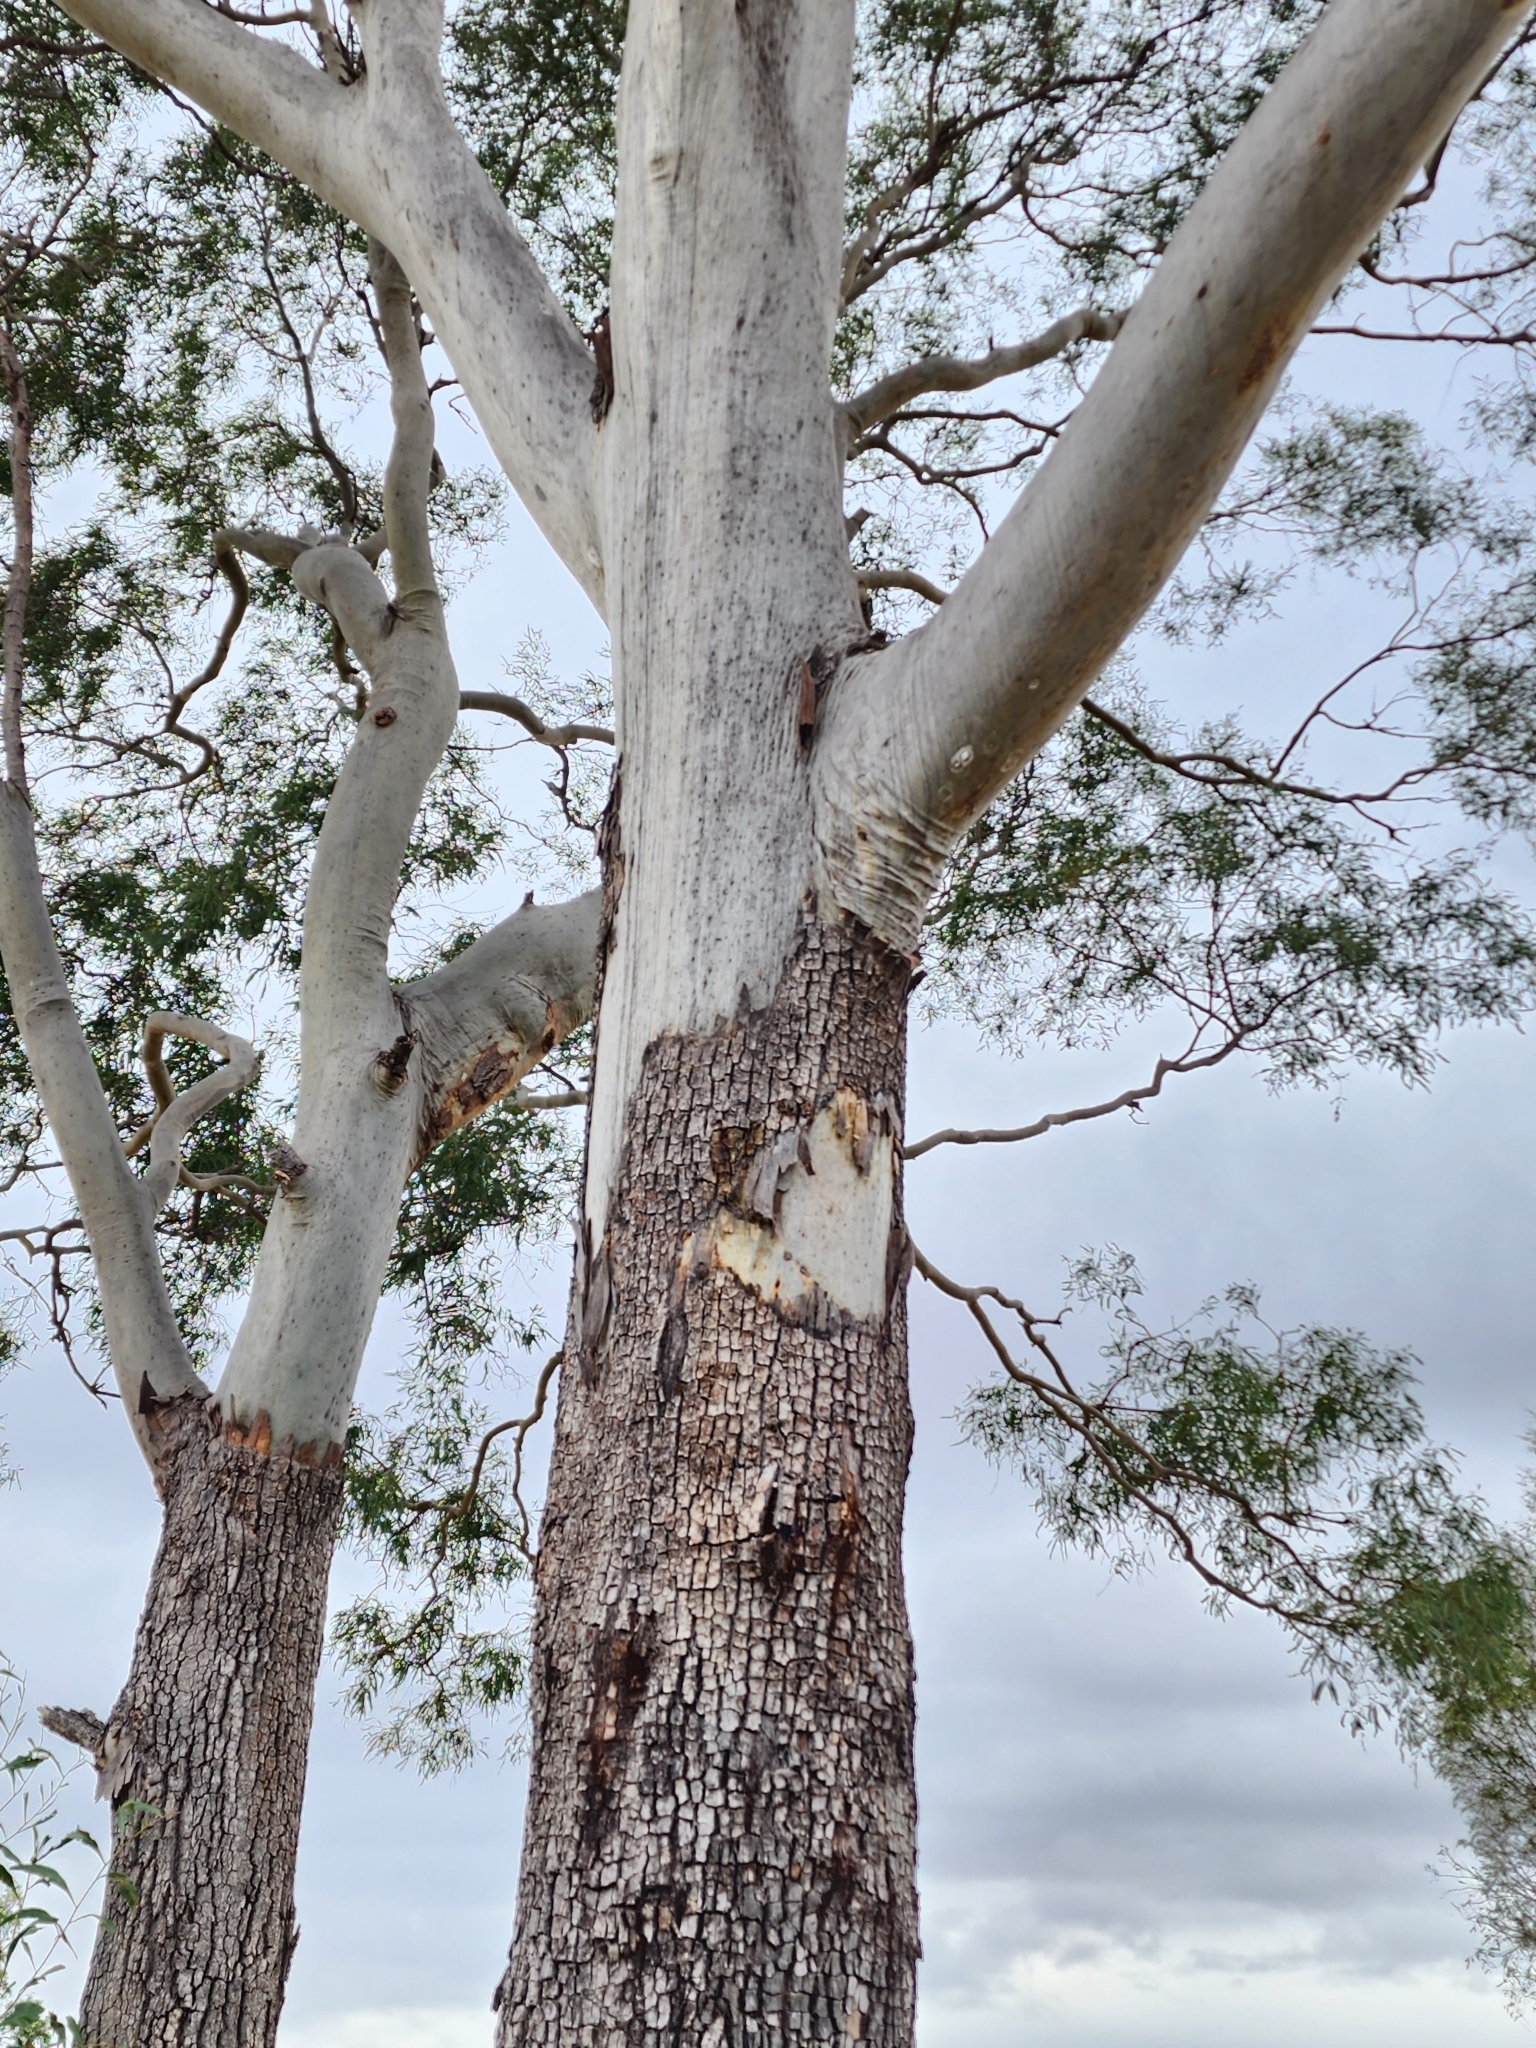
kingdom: Plantae
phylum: Tracheophyta
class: Magnoliopsida
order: Myrtales
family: Myrtaceae
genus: Corymbia
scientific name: Corymbia tessellaris
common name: Carbeen
